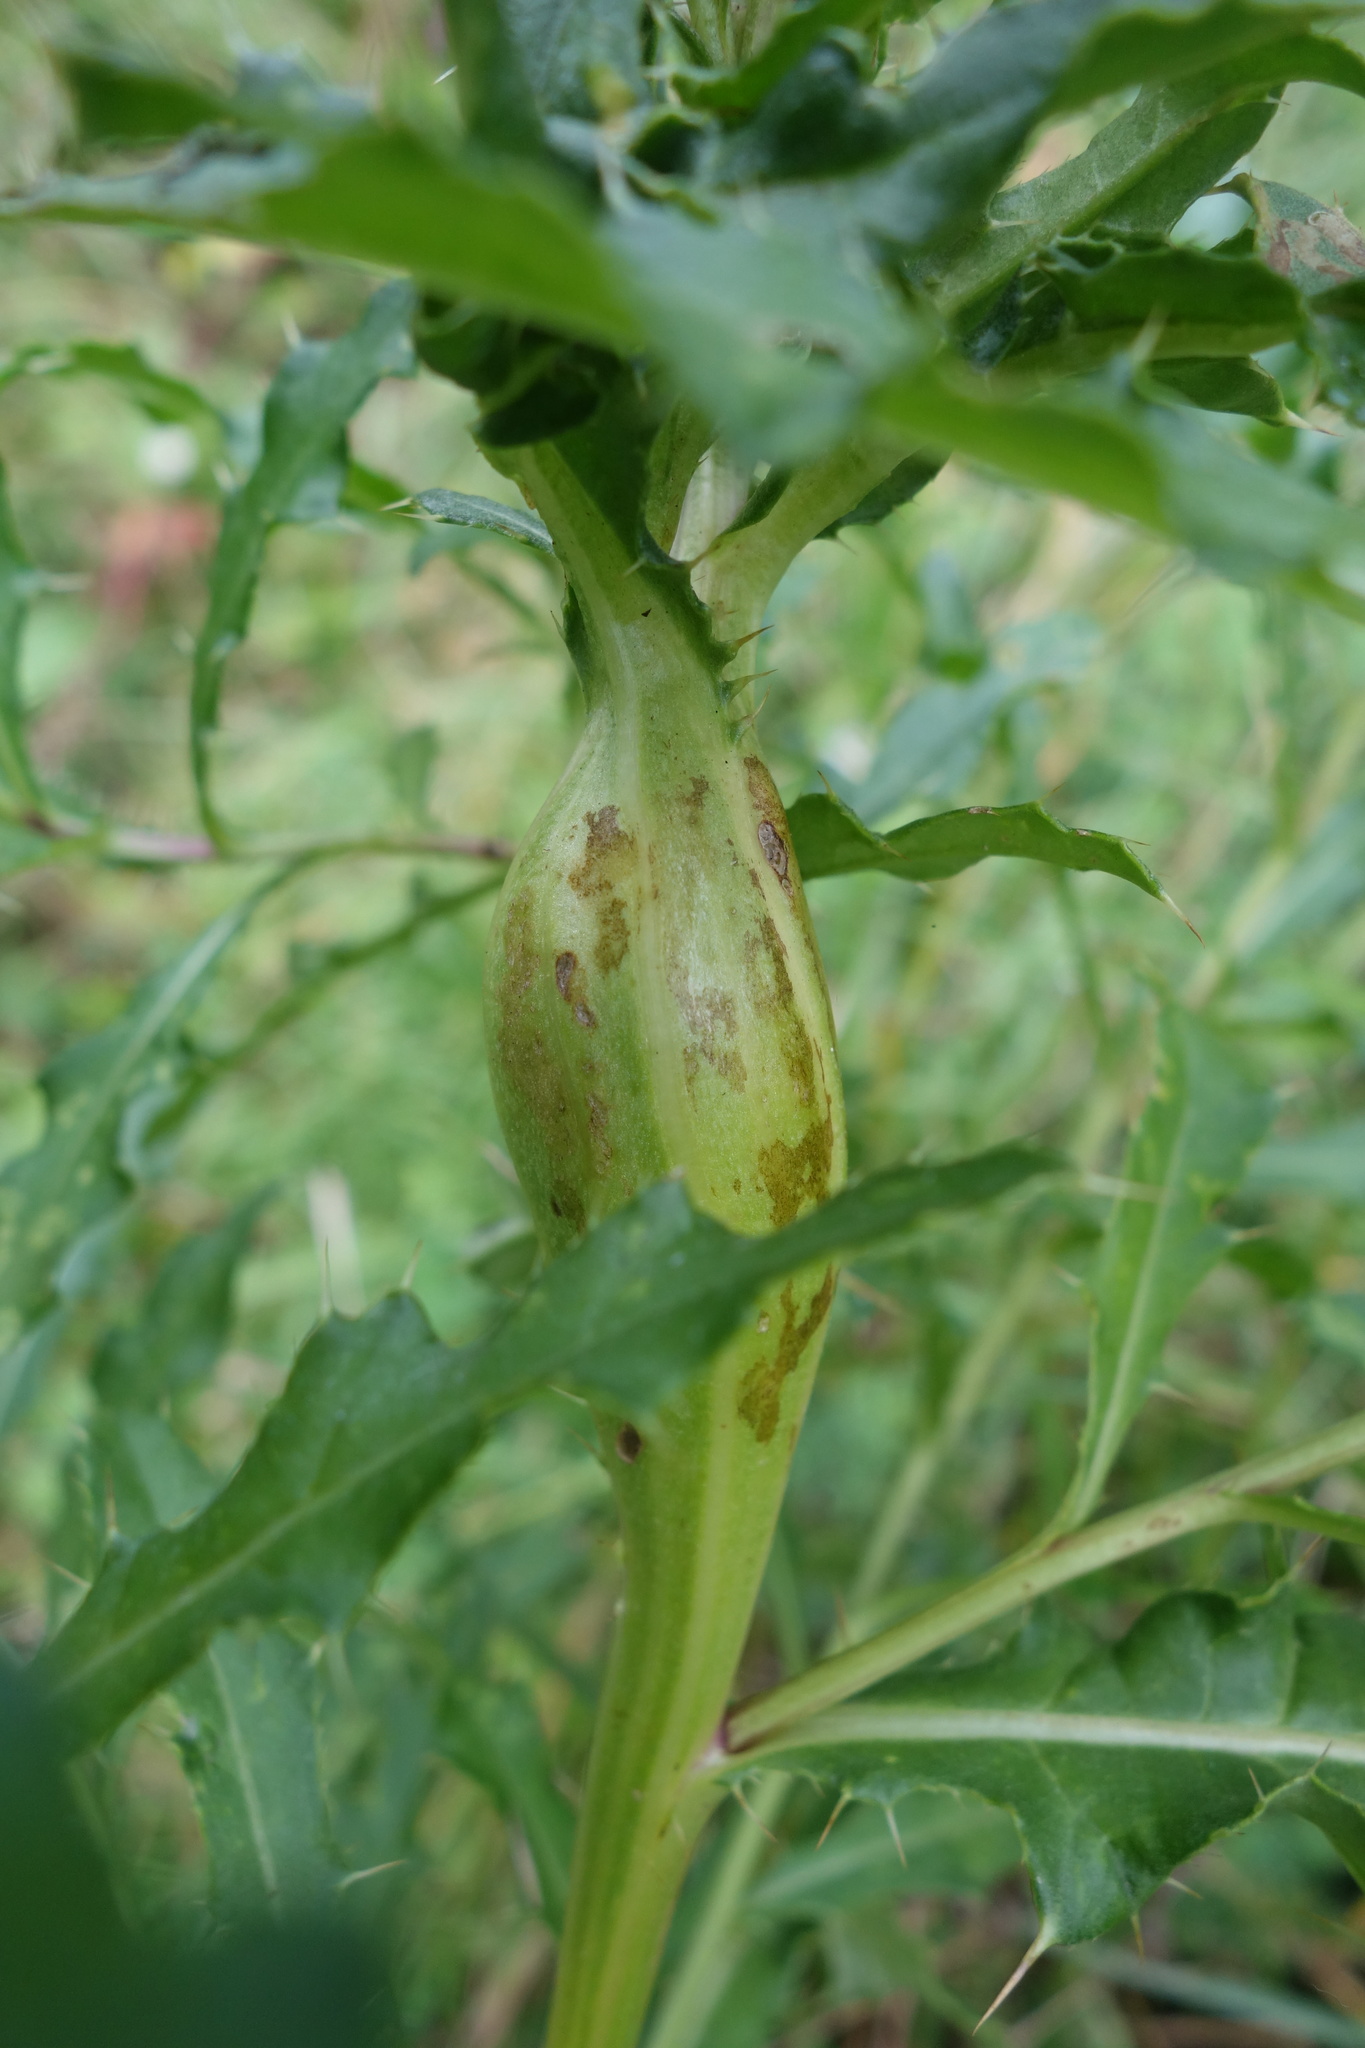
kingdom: Animalia
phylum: Arthropoda
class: Insecta
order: Diptera
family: Tephritidae
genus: Urophora
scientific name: Urophora cardui
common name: Fruit fly
